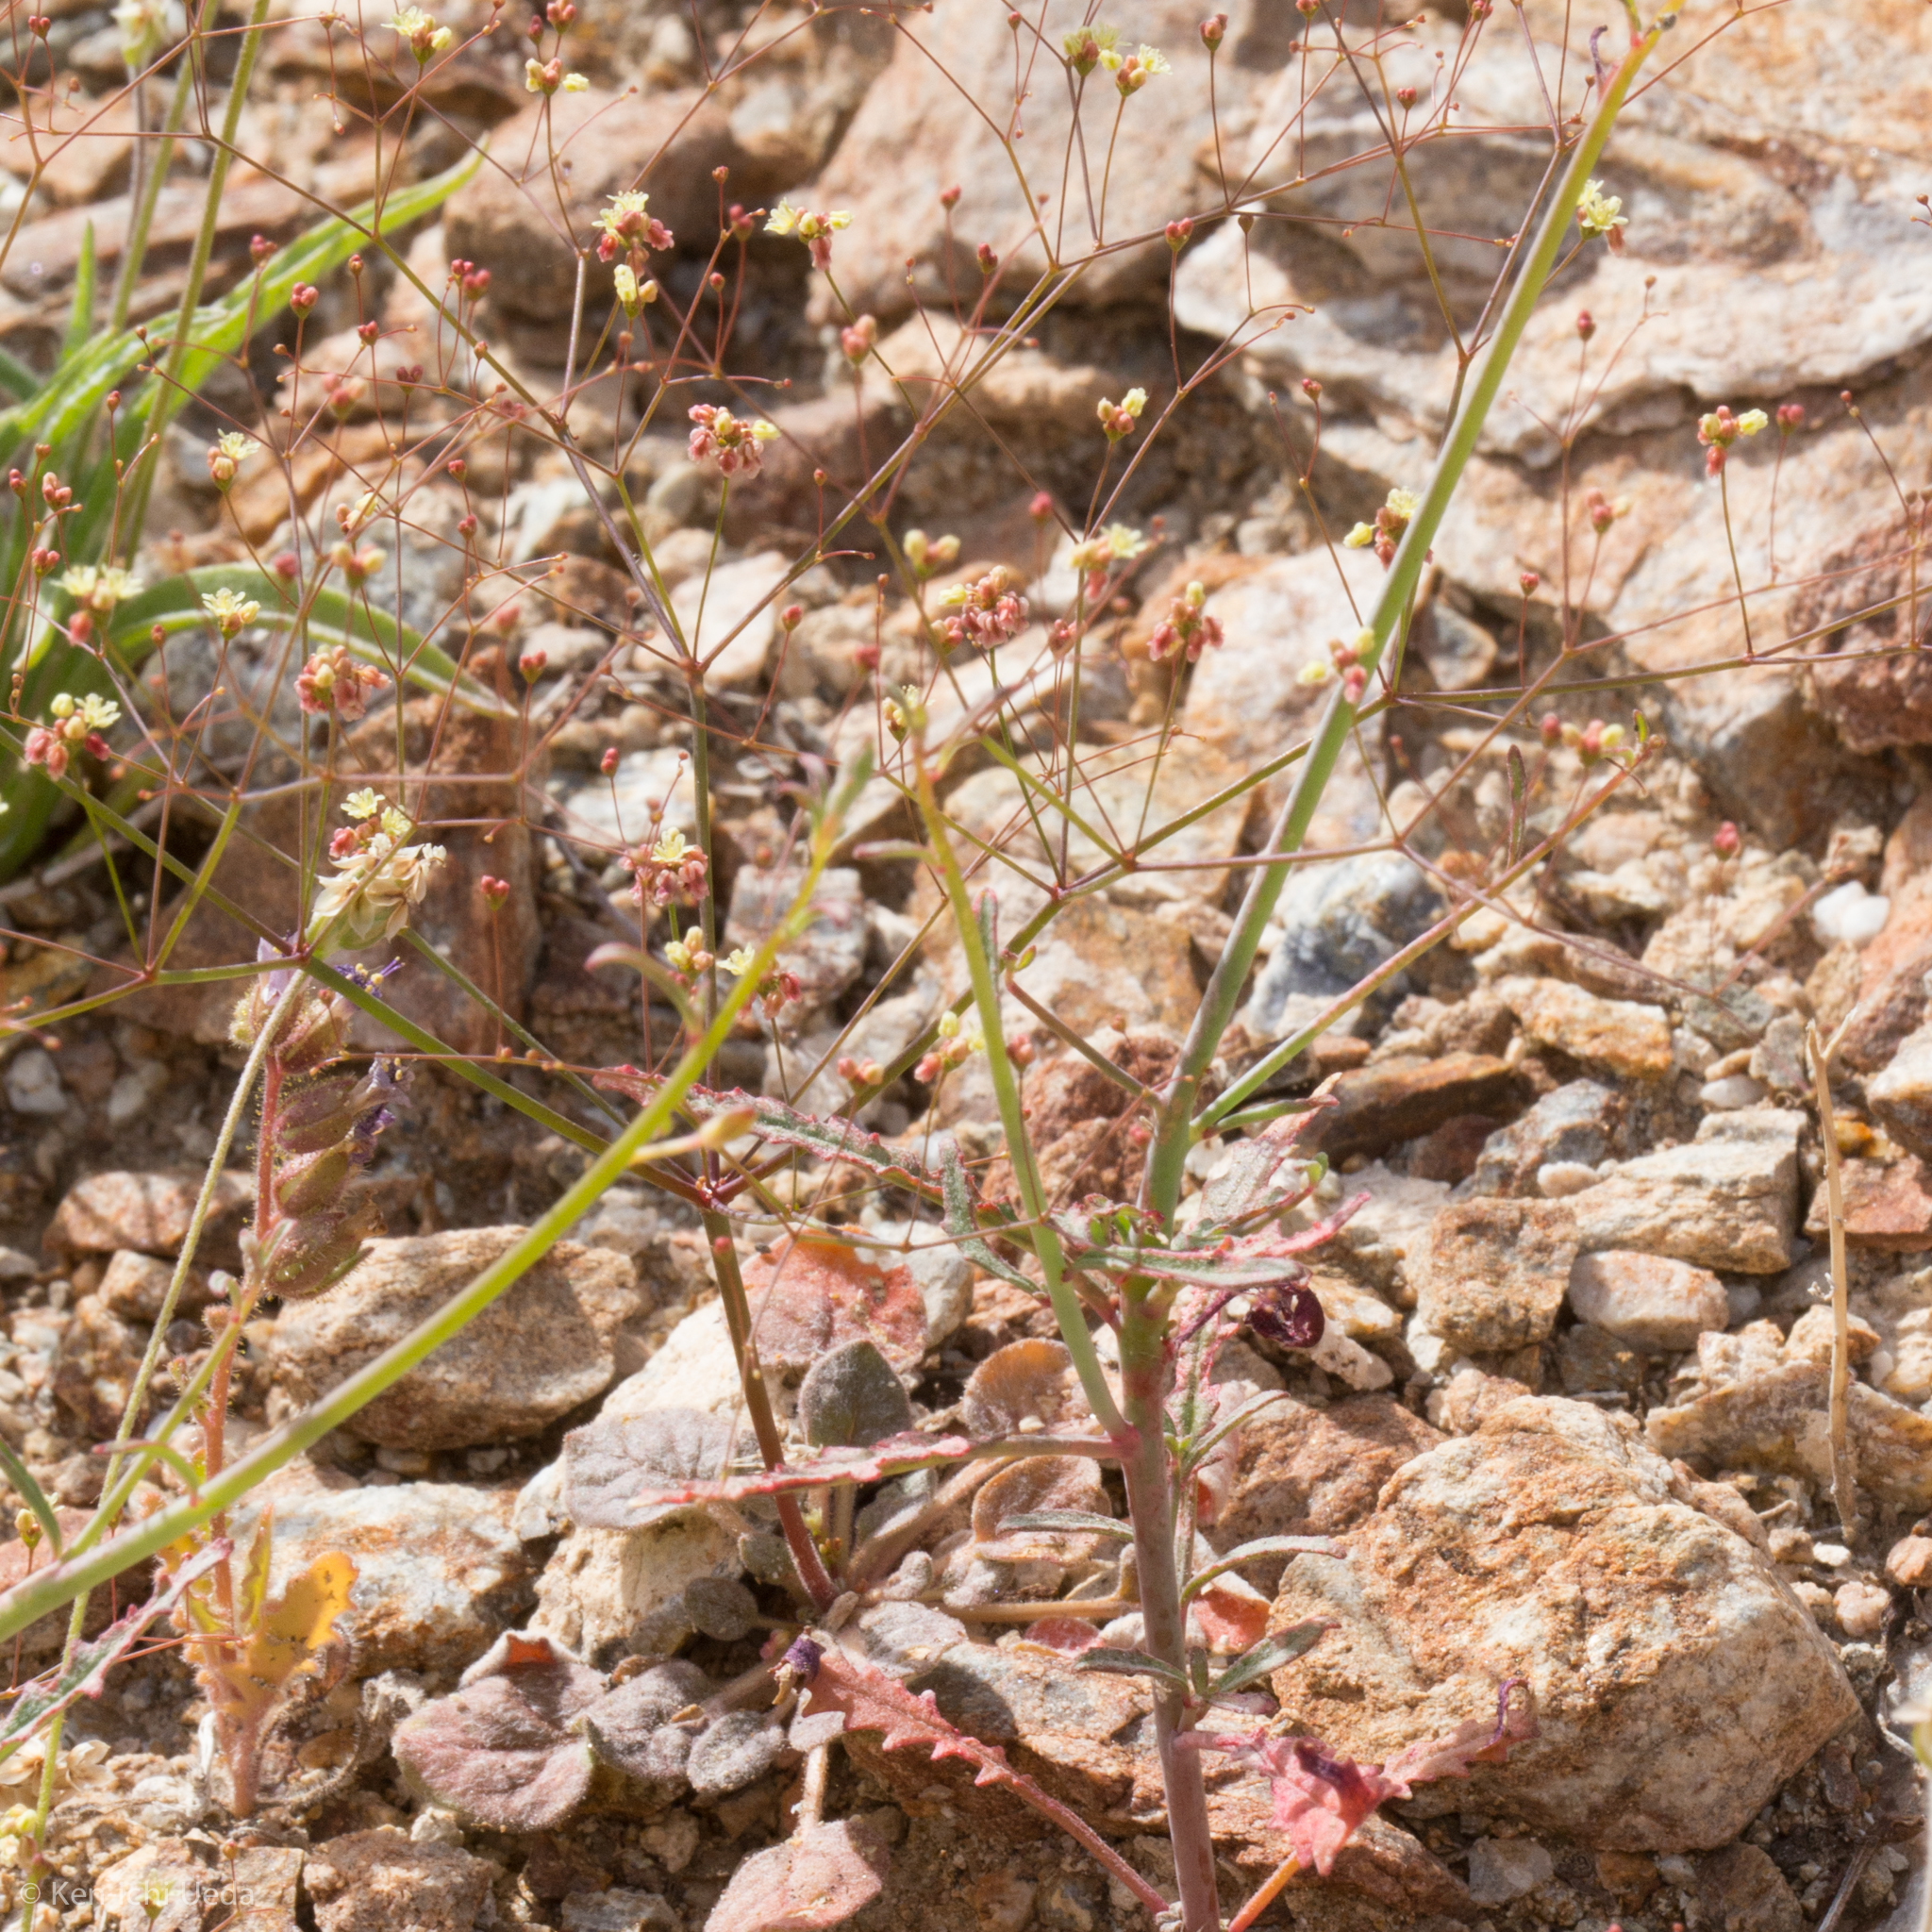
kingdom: Plantae
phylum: Tracheophyta
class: Magnoliopsida
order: Caryophyllales
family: Polygonaceae
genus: Eriogonum
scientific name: Eriogonum thomasii
